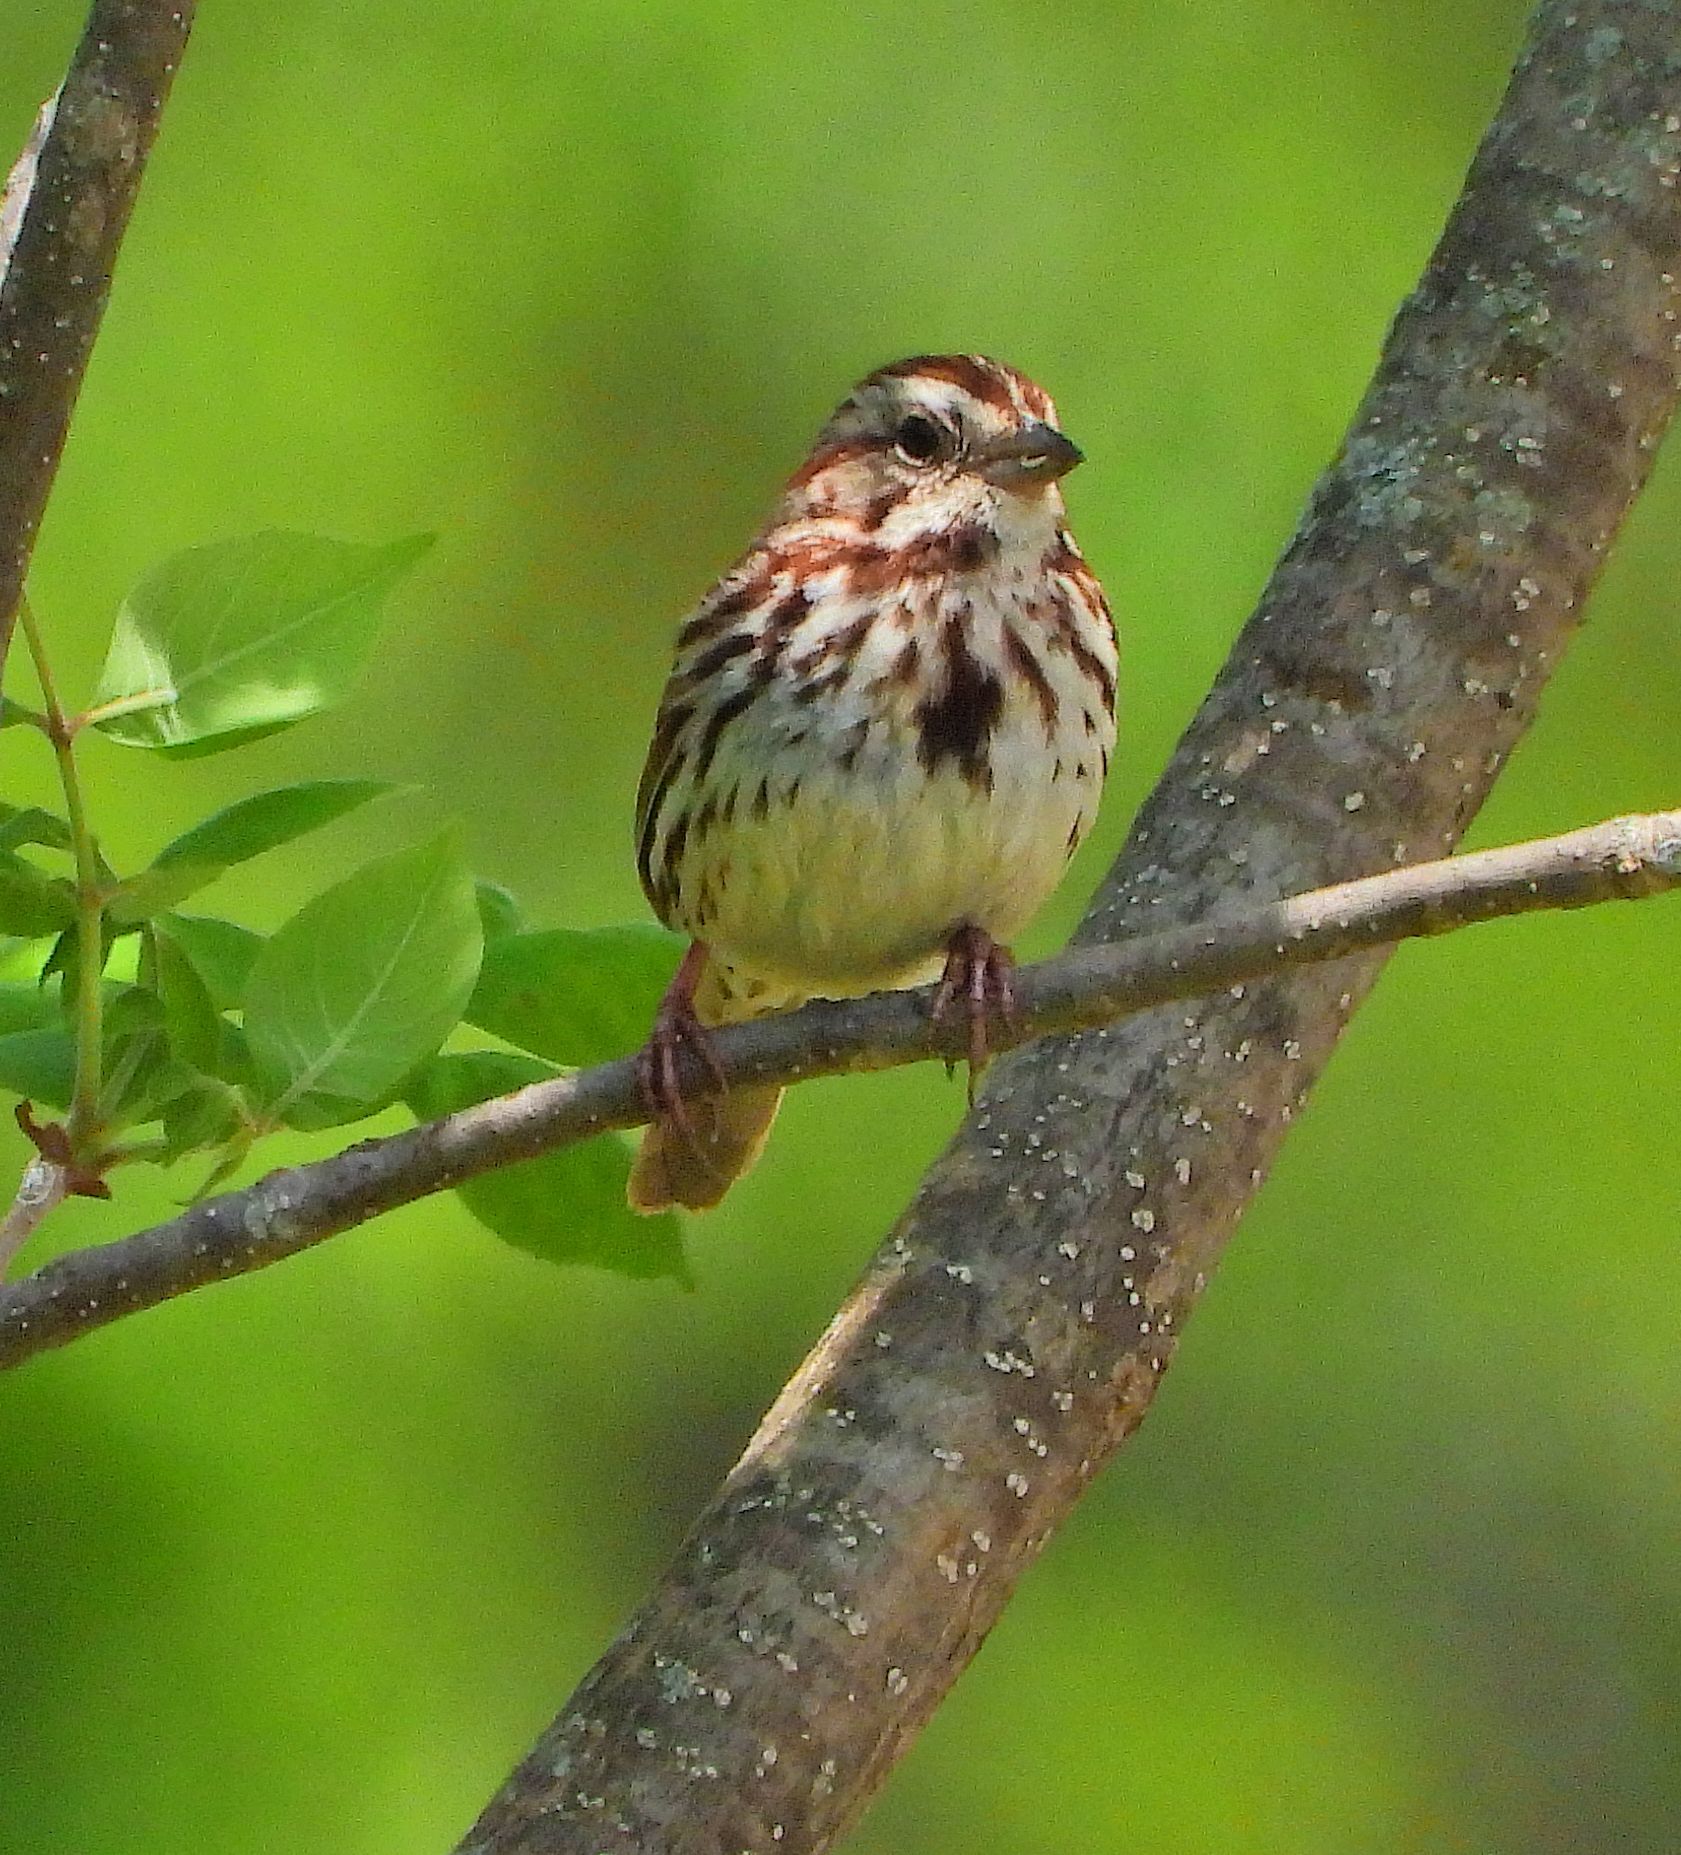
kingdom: Animalia
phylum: Chordata
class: Aves
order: Passeriformes
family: Passerellidae
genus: Melospiza
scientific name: Melospiza melodia
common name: Song sparrow
